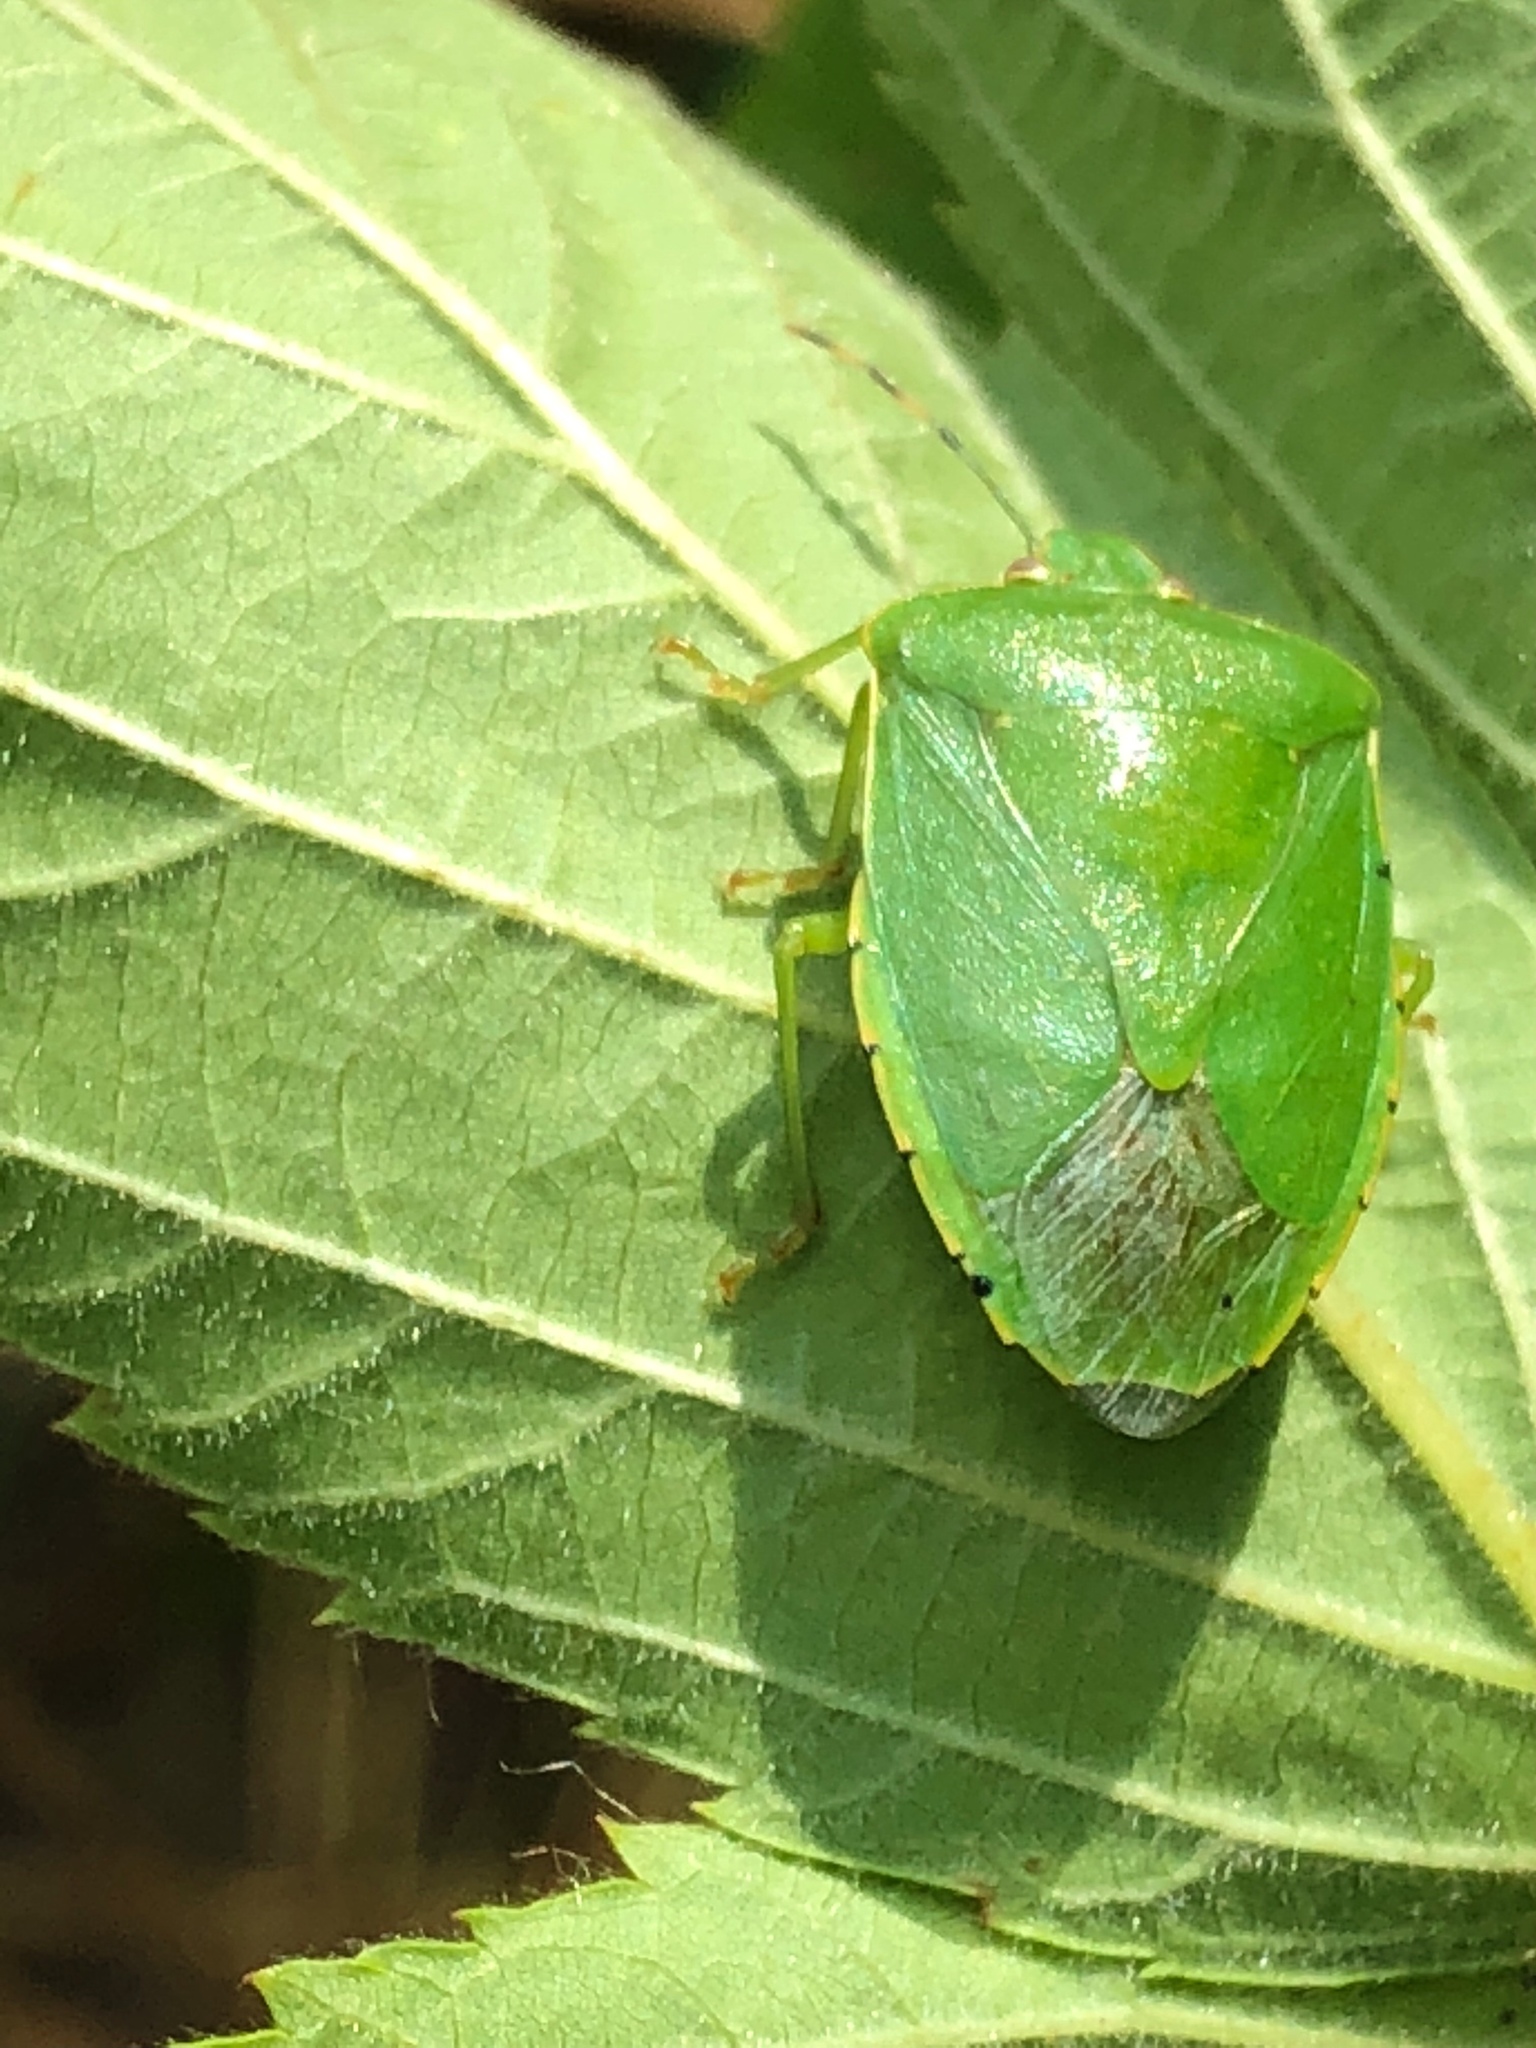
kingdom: Animalia
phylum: Arthropoda
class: Insecta
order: Hemiptera
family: Pentatomidae
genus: Chinavia
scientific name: Chinavia hilaris
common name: Green stink bug
